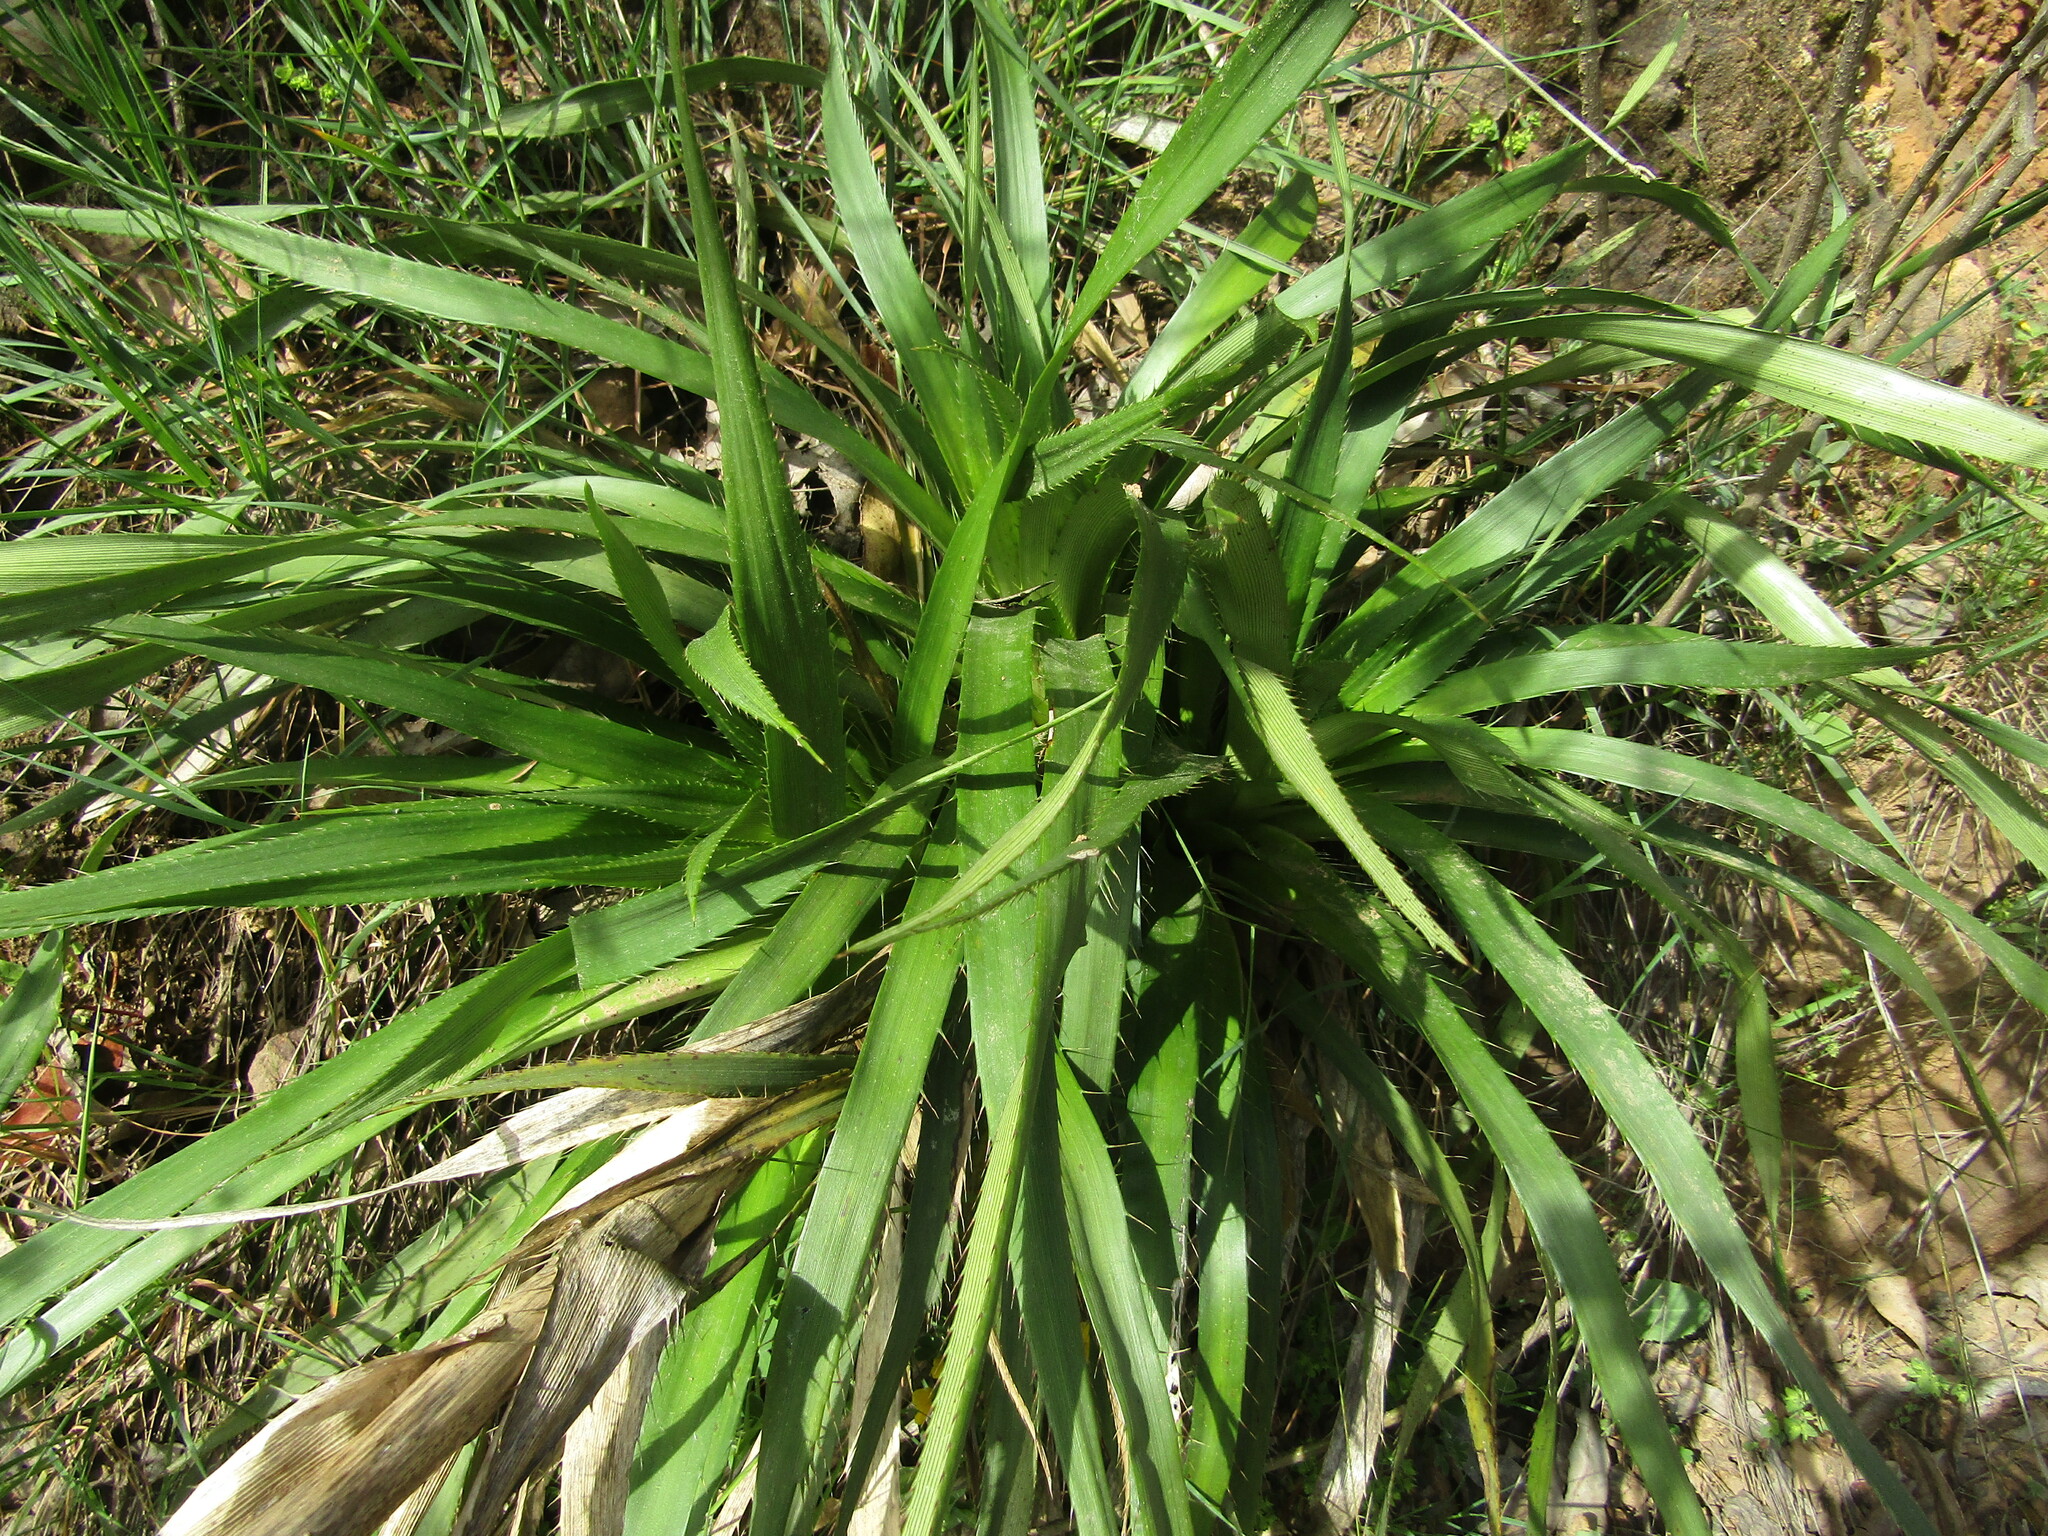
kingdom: Plantae
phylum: Tracheophyta
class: Magnoliopsida
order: Apiales
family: Apiaceae
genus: Eryngium
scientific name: Eryngium humboldtii
